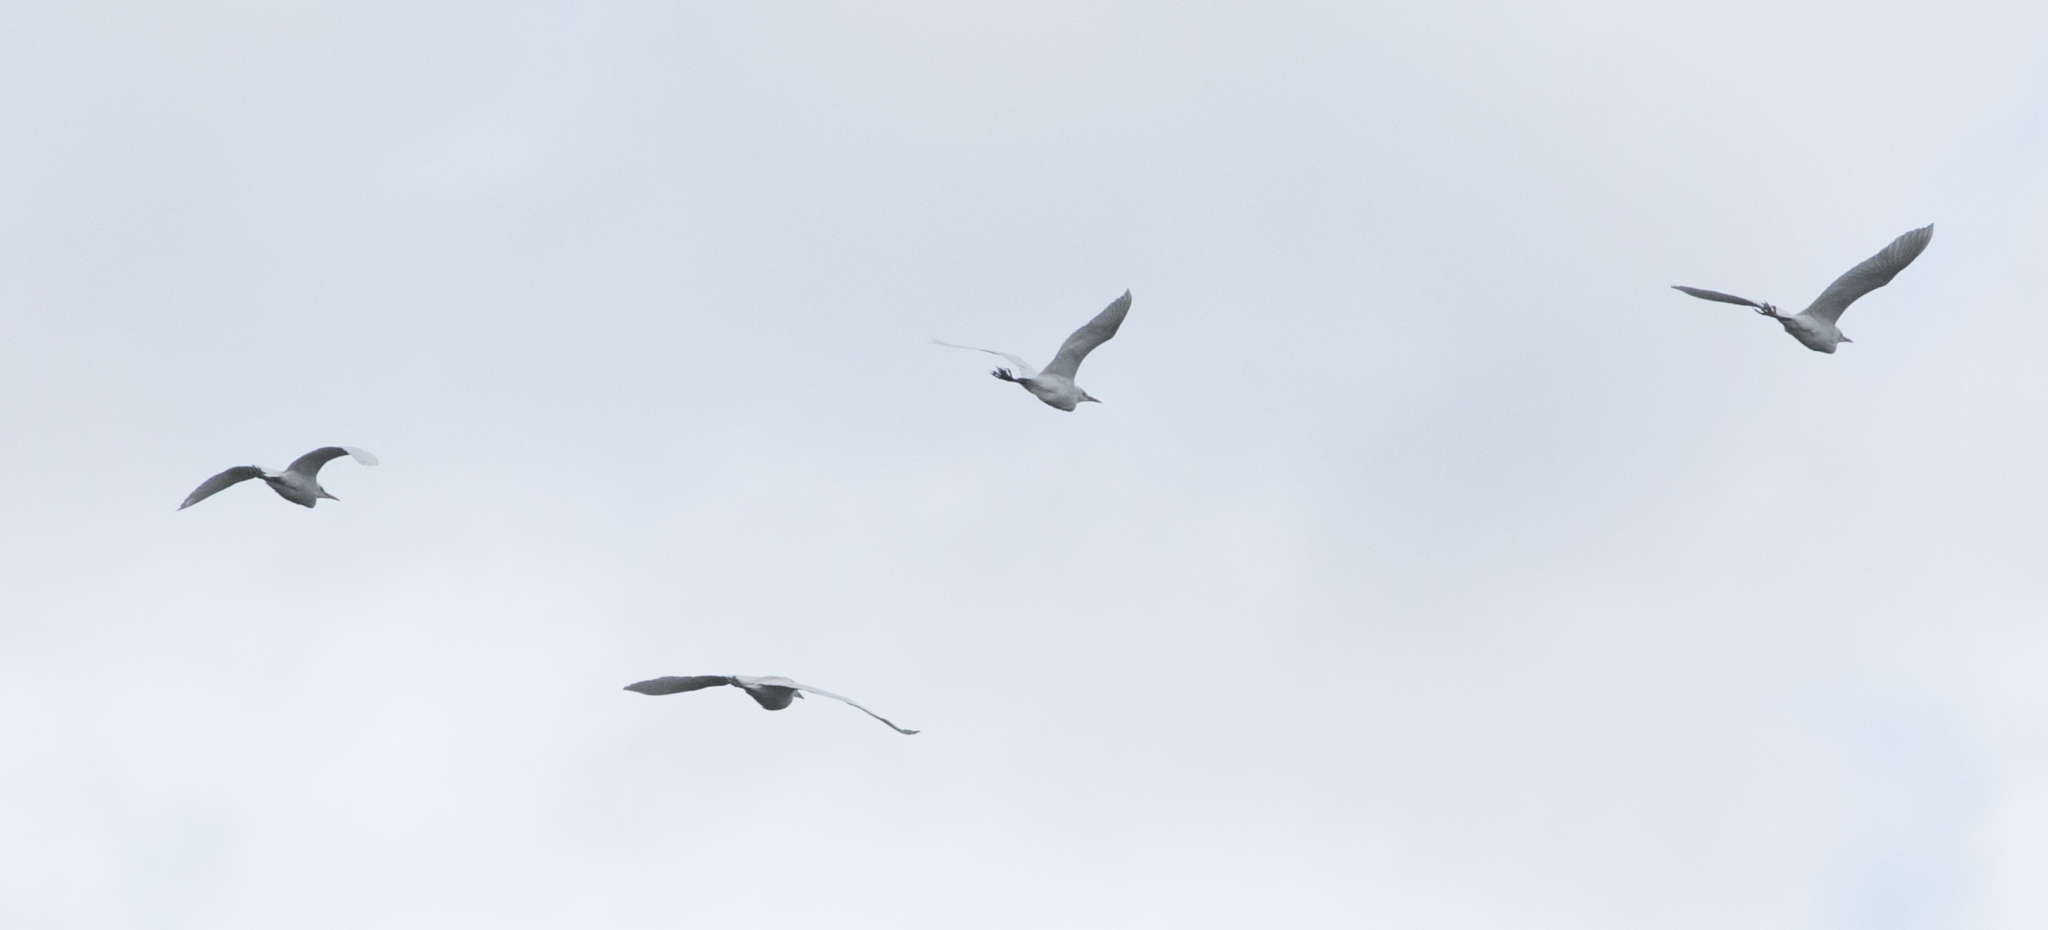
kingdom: Animalia
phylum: Chordata
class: Aves
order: Pelecaniformes
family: Ardeidae
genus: Bubulcus
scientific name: Bubulcus ibis
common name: Cattle egret
